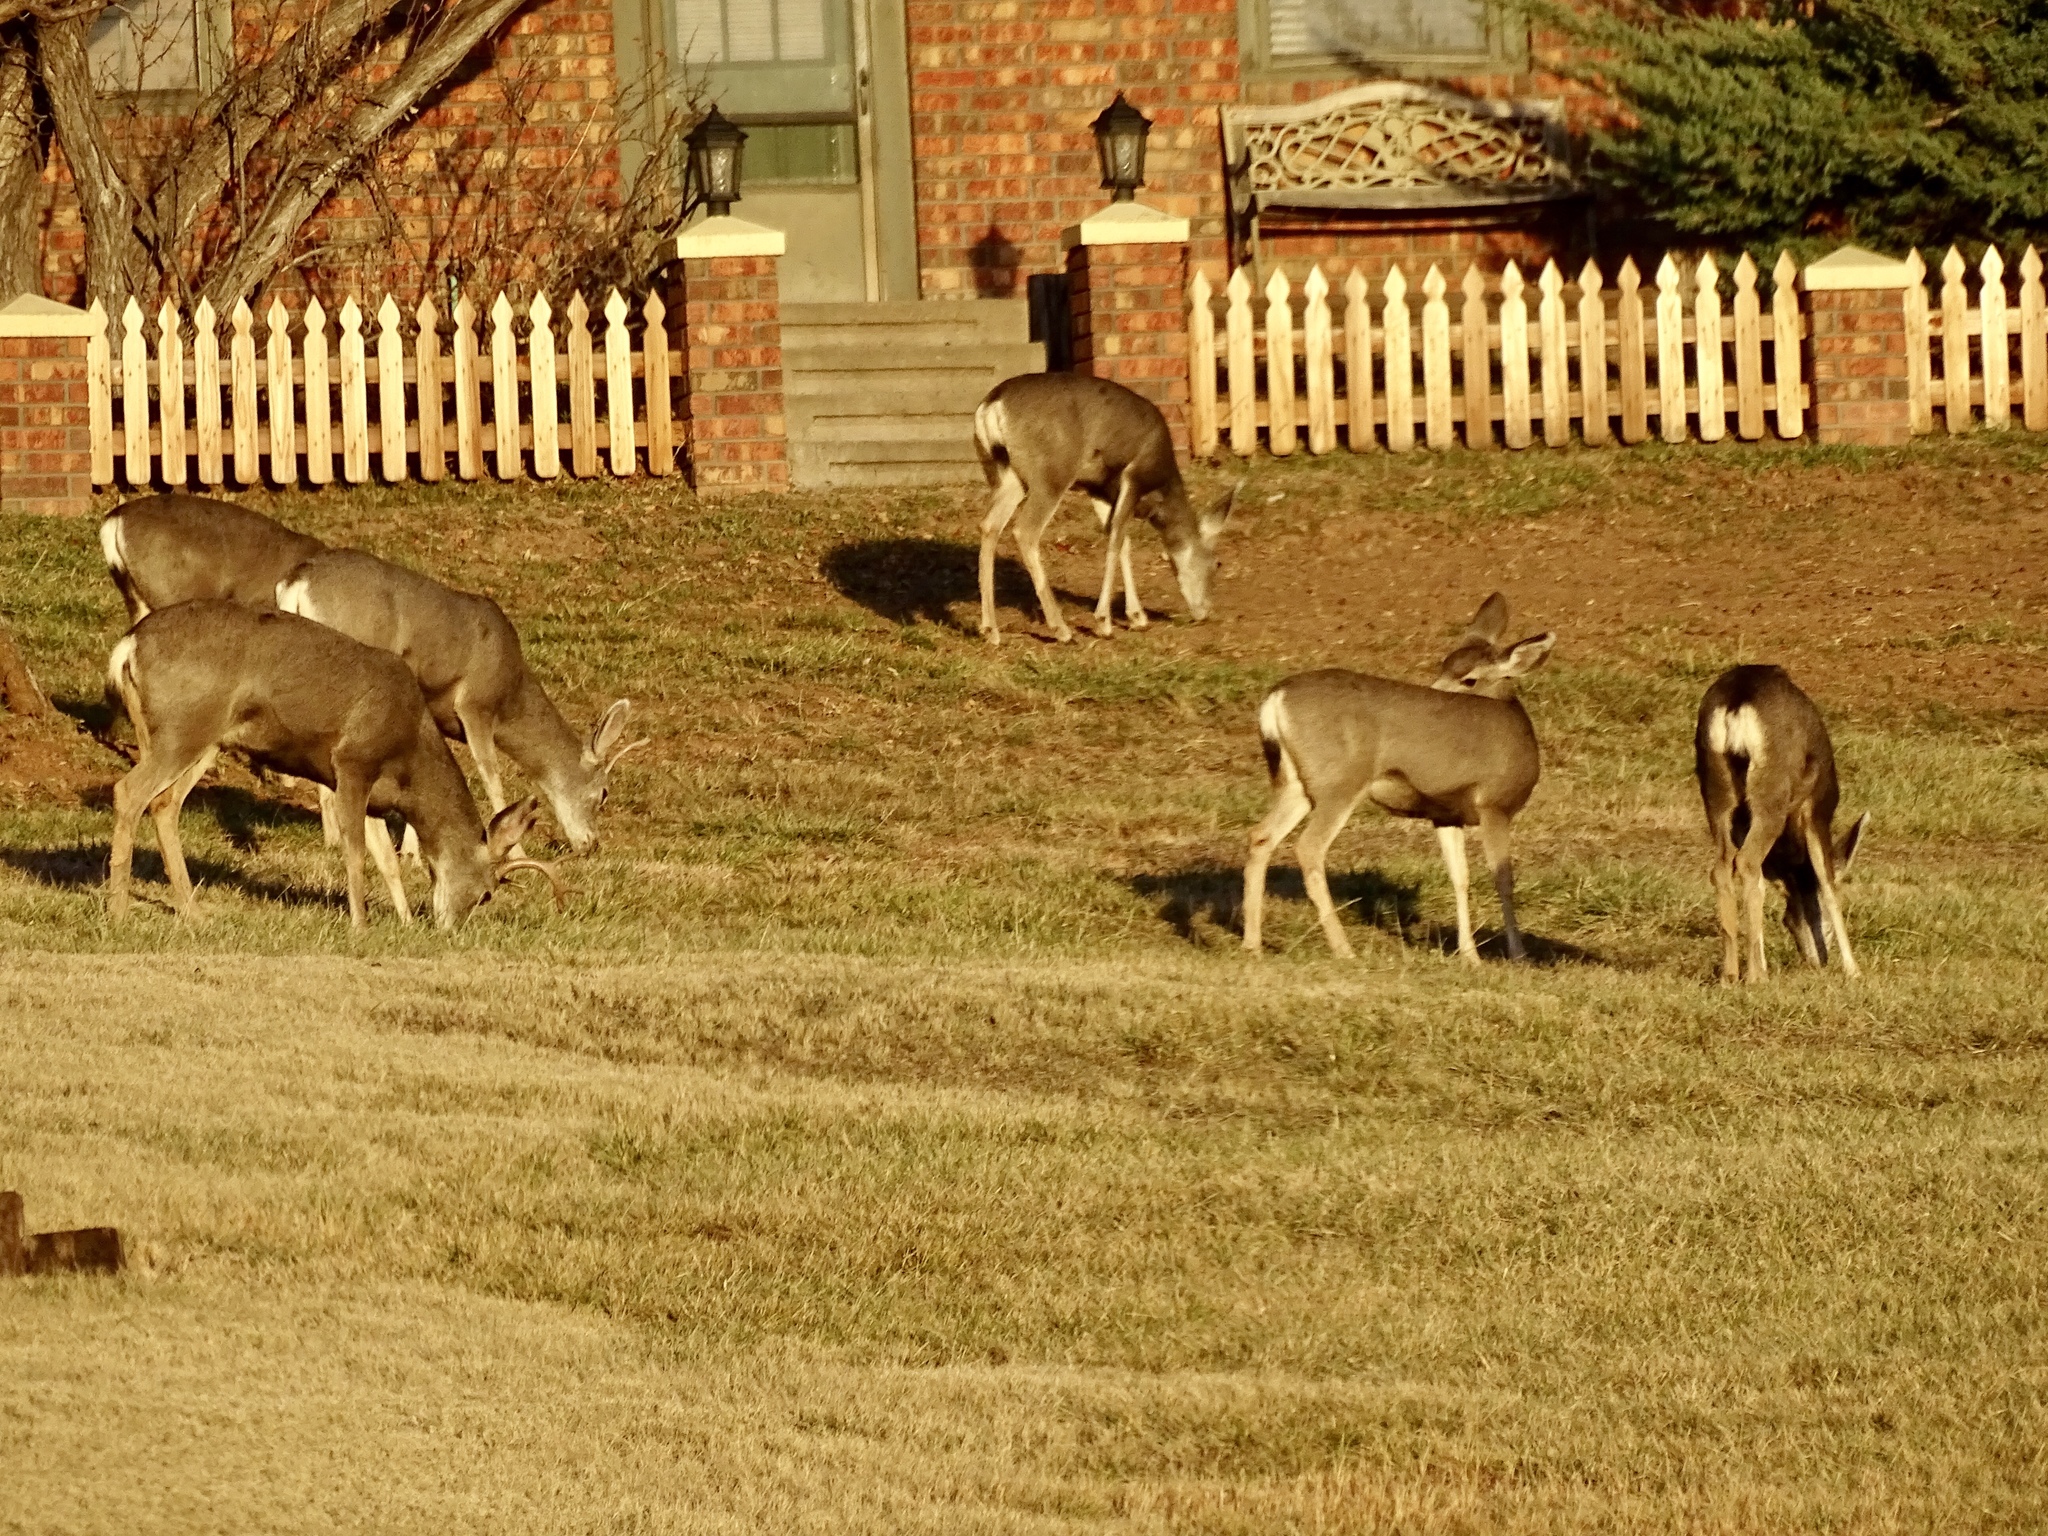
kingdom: Animalia
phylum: Chordata
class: Mammalia
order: Artiodactyla
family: Cervidae
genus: Odocoileus
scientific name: Odocoileus hemionus
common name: Mule deer
